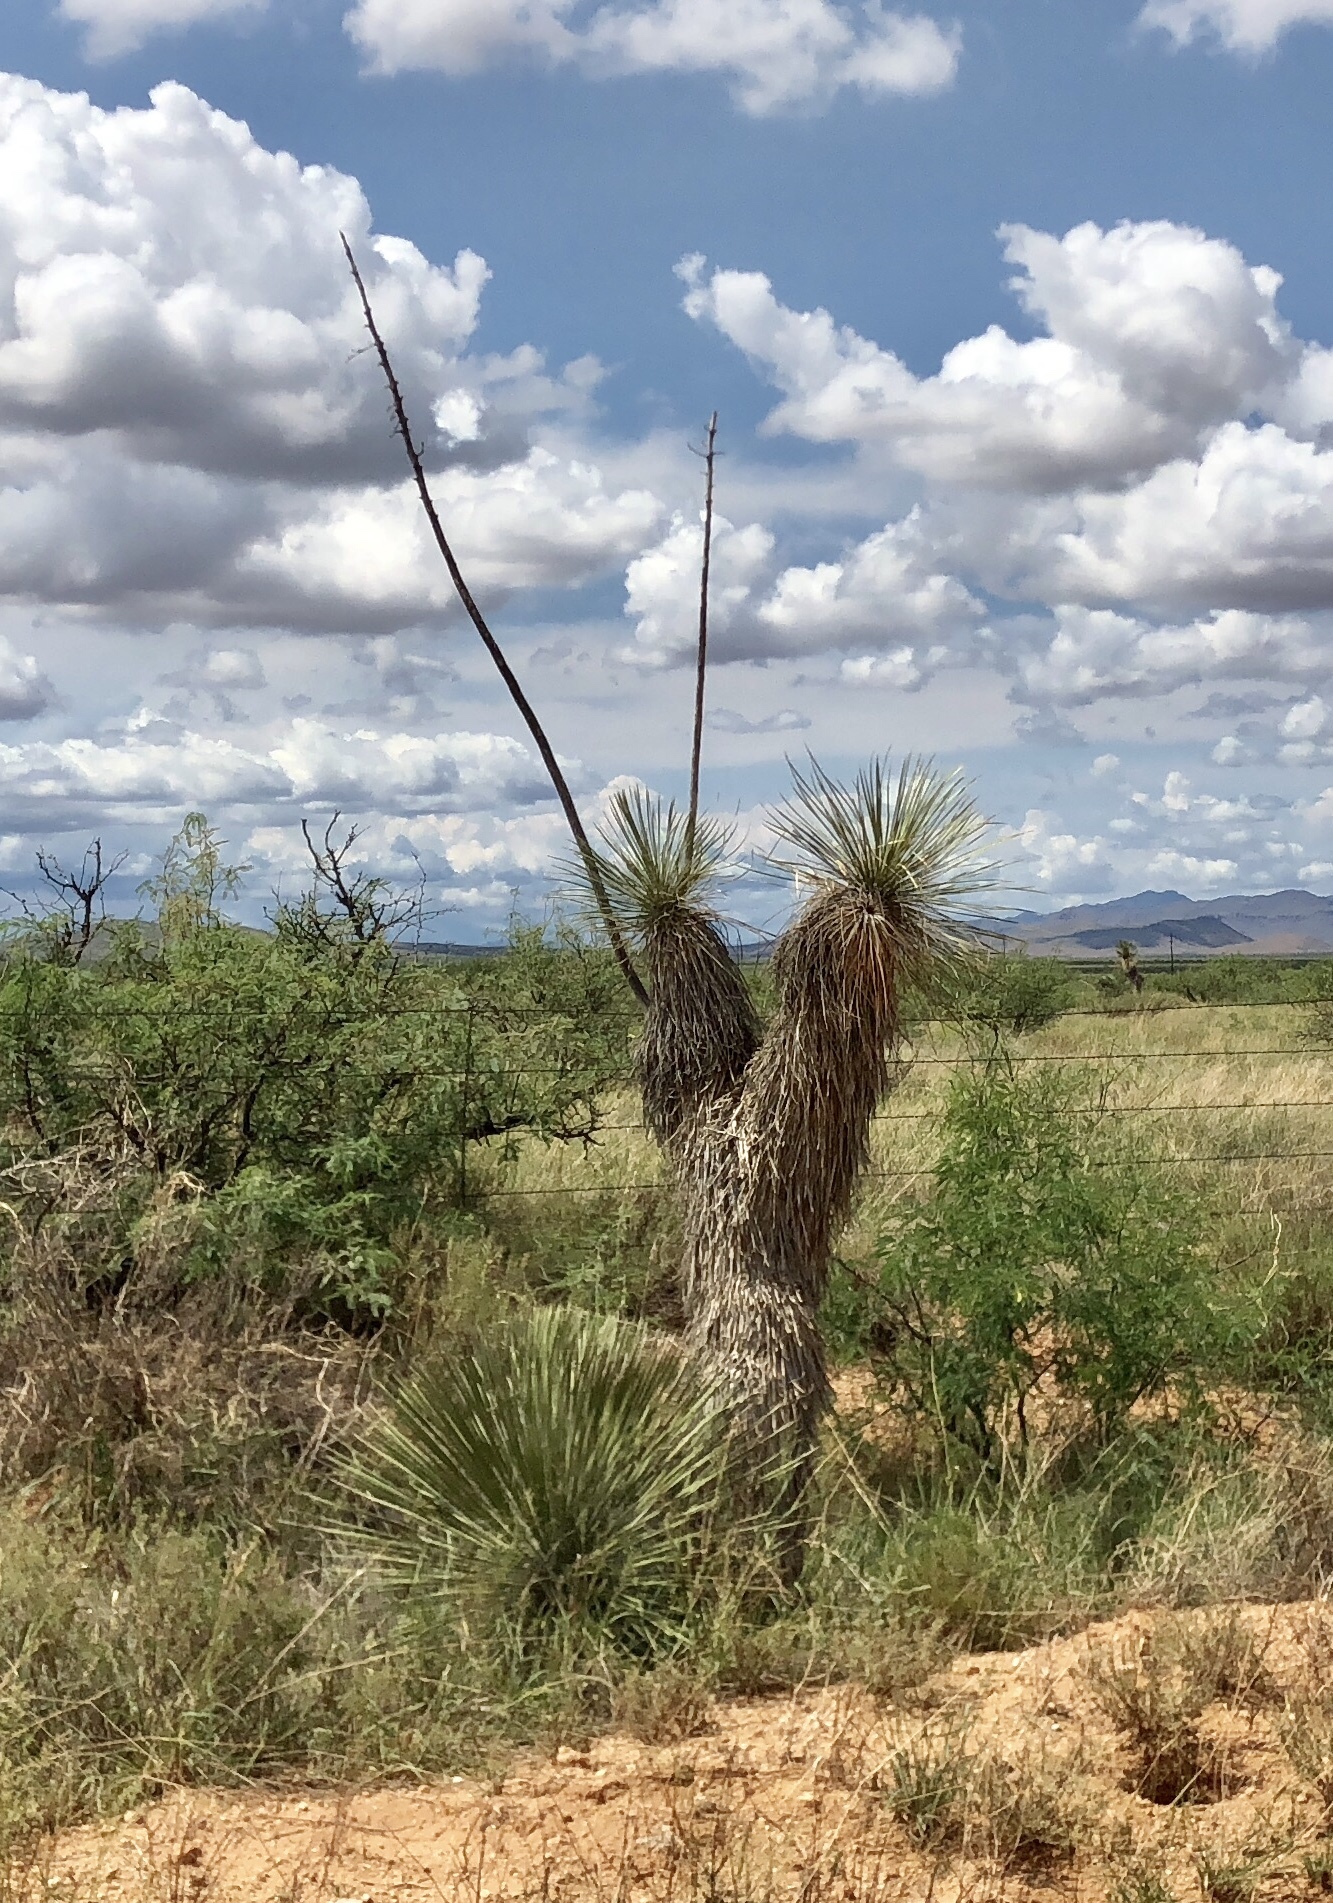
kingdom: Plantae
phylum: Tracheophyta
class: Liliopsida
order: Asparagales
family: Asparagaceae
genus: Yucca
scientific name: Yucca elata
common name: Palmella
